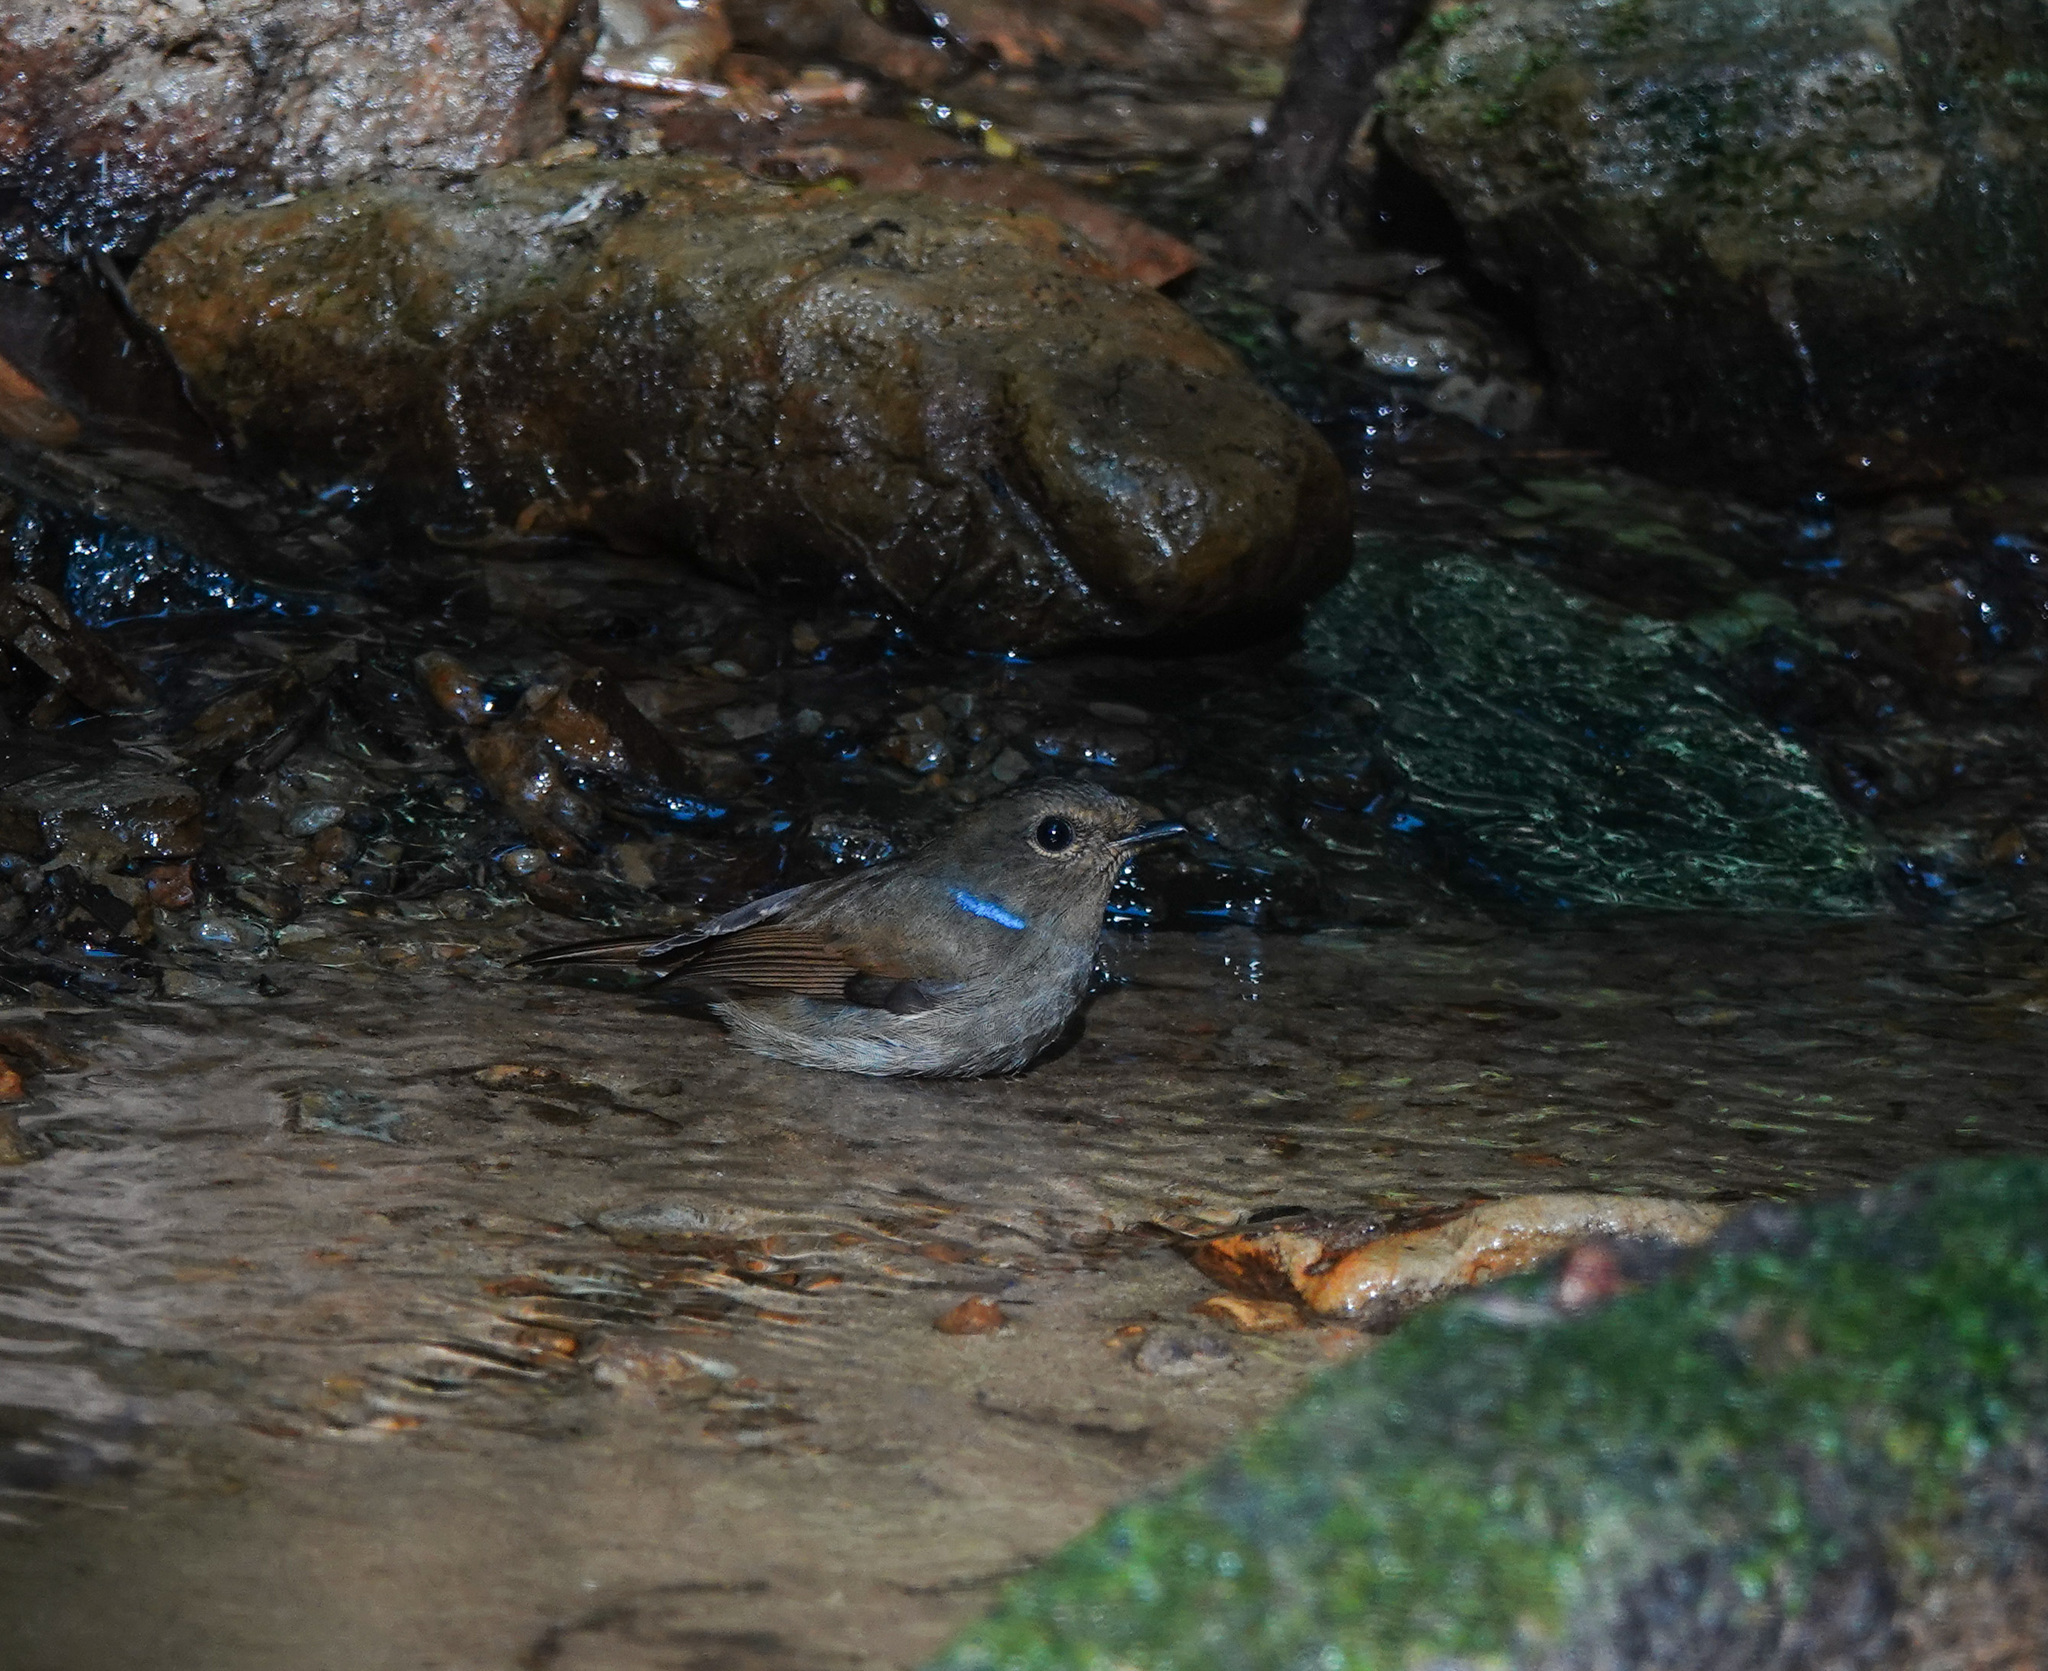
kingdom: Animalia
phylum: Chordata
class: Aves
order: Passeriformes
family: Muscicapidae
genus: Niltava
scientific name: Niltava macgrigoriae
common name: Small niltava
